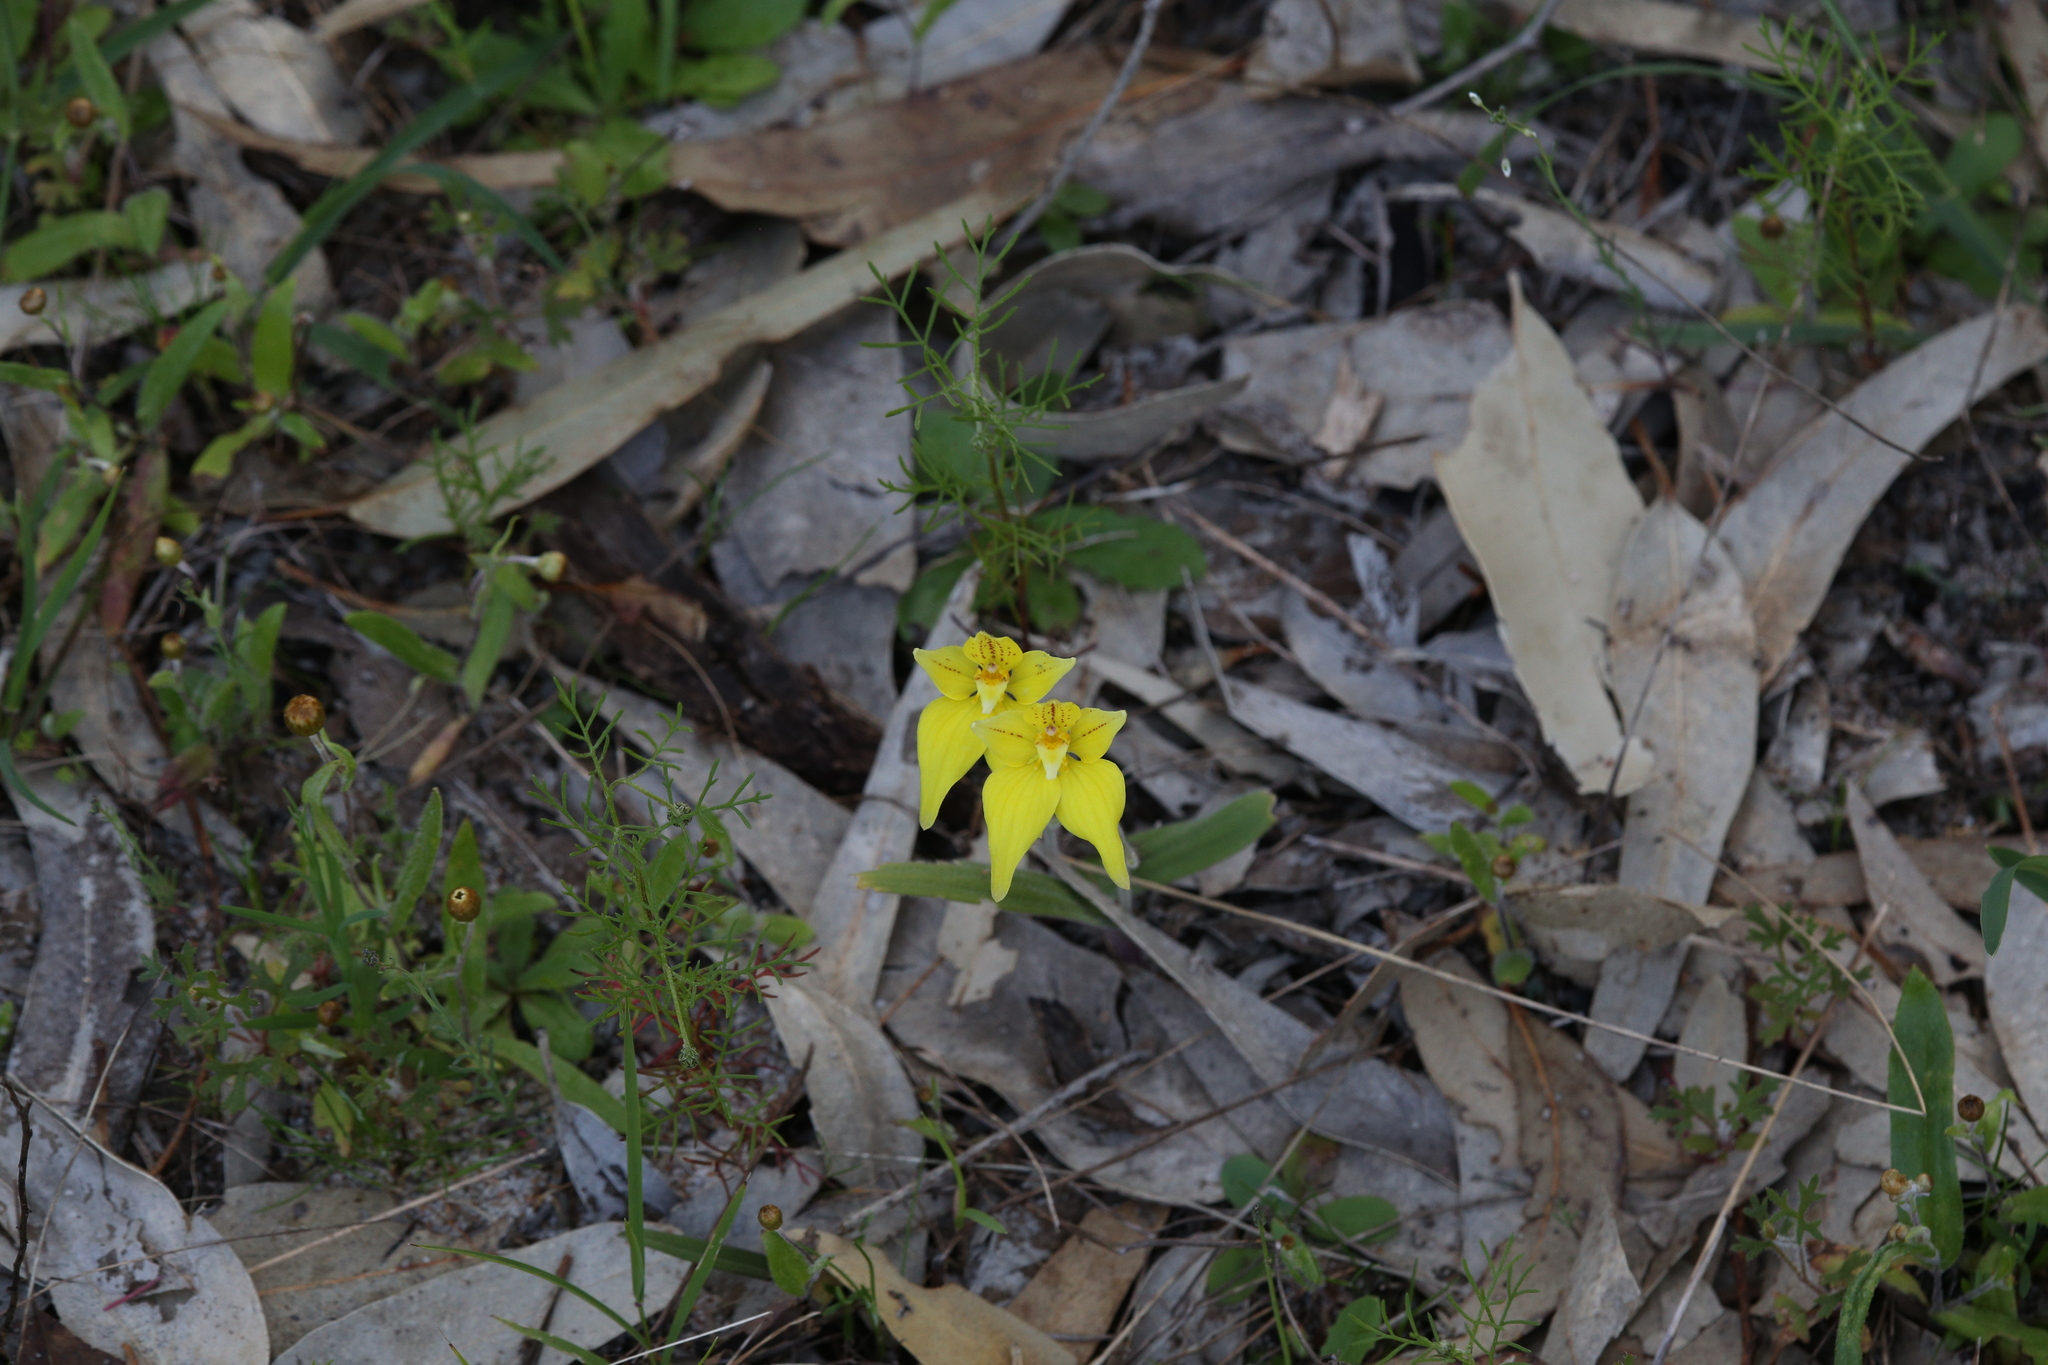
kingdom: Plantae
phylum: Tracheophyta
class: Liliopsida
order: Asparagales
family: Orchidaceae
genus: Caladenia
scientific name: Caladenia flava
